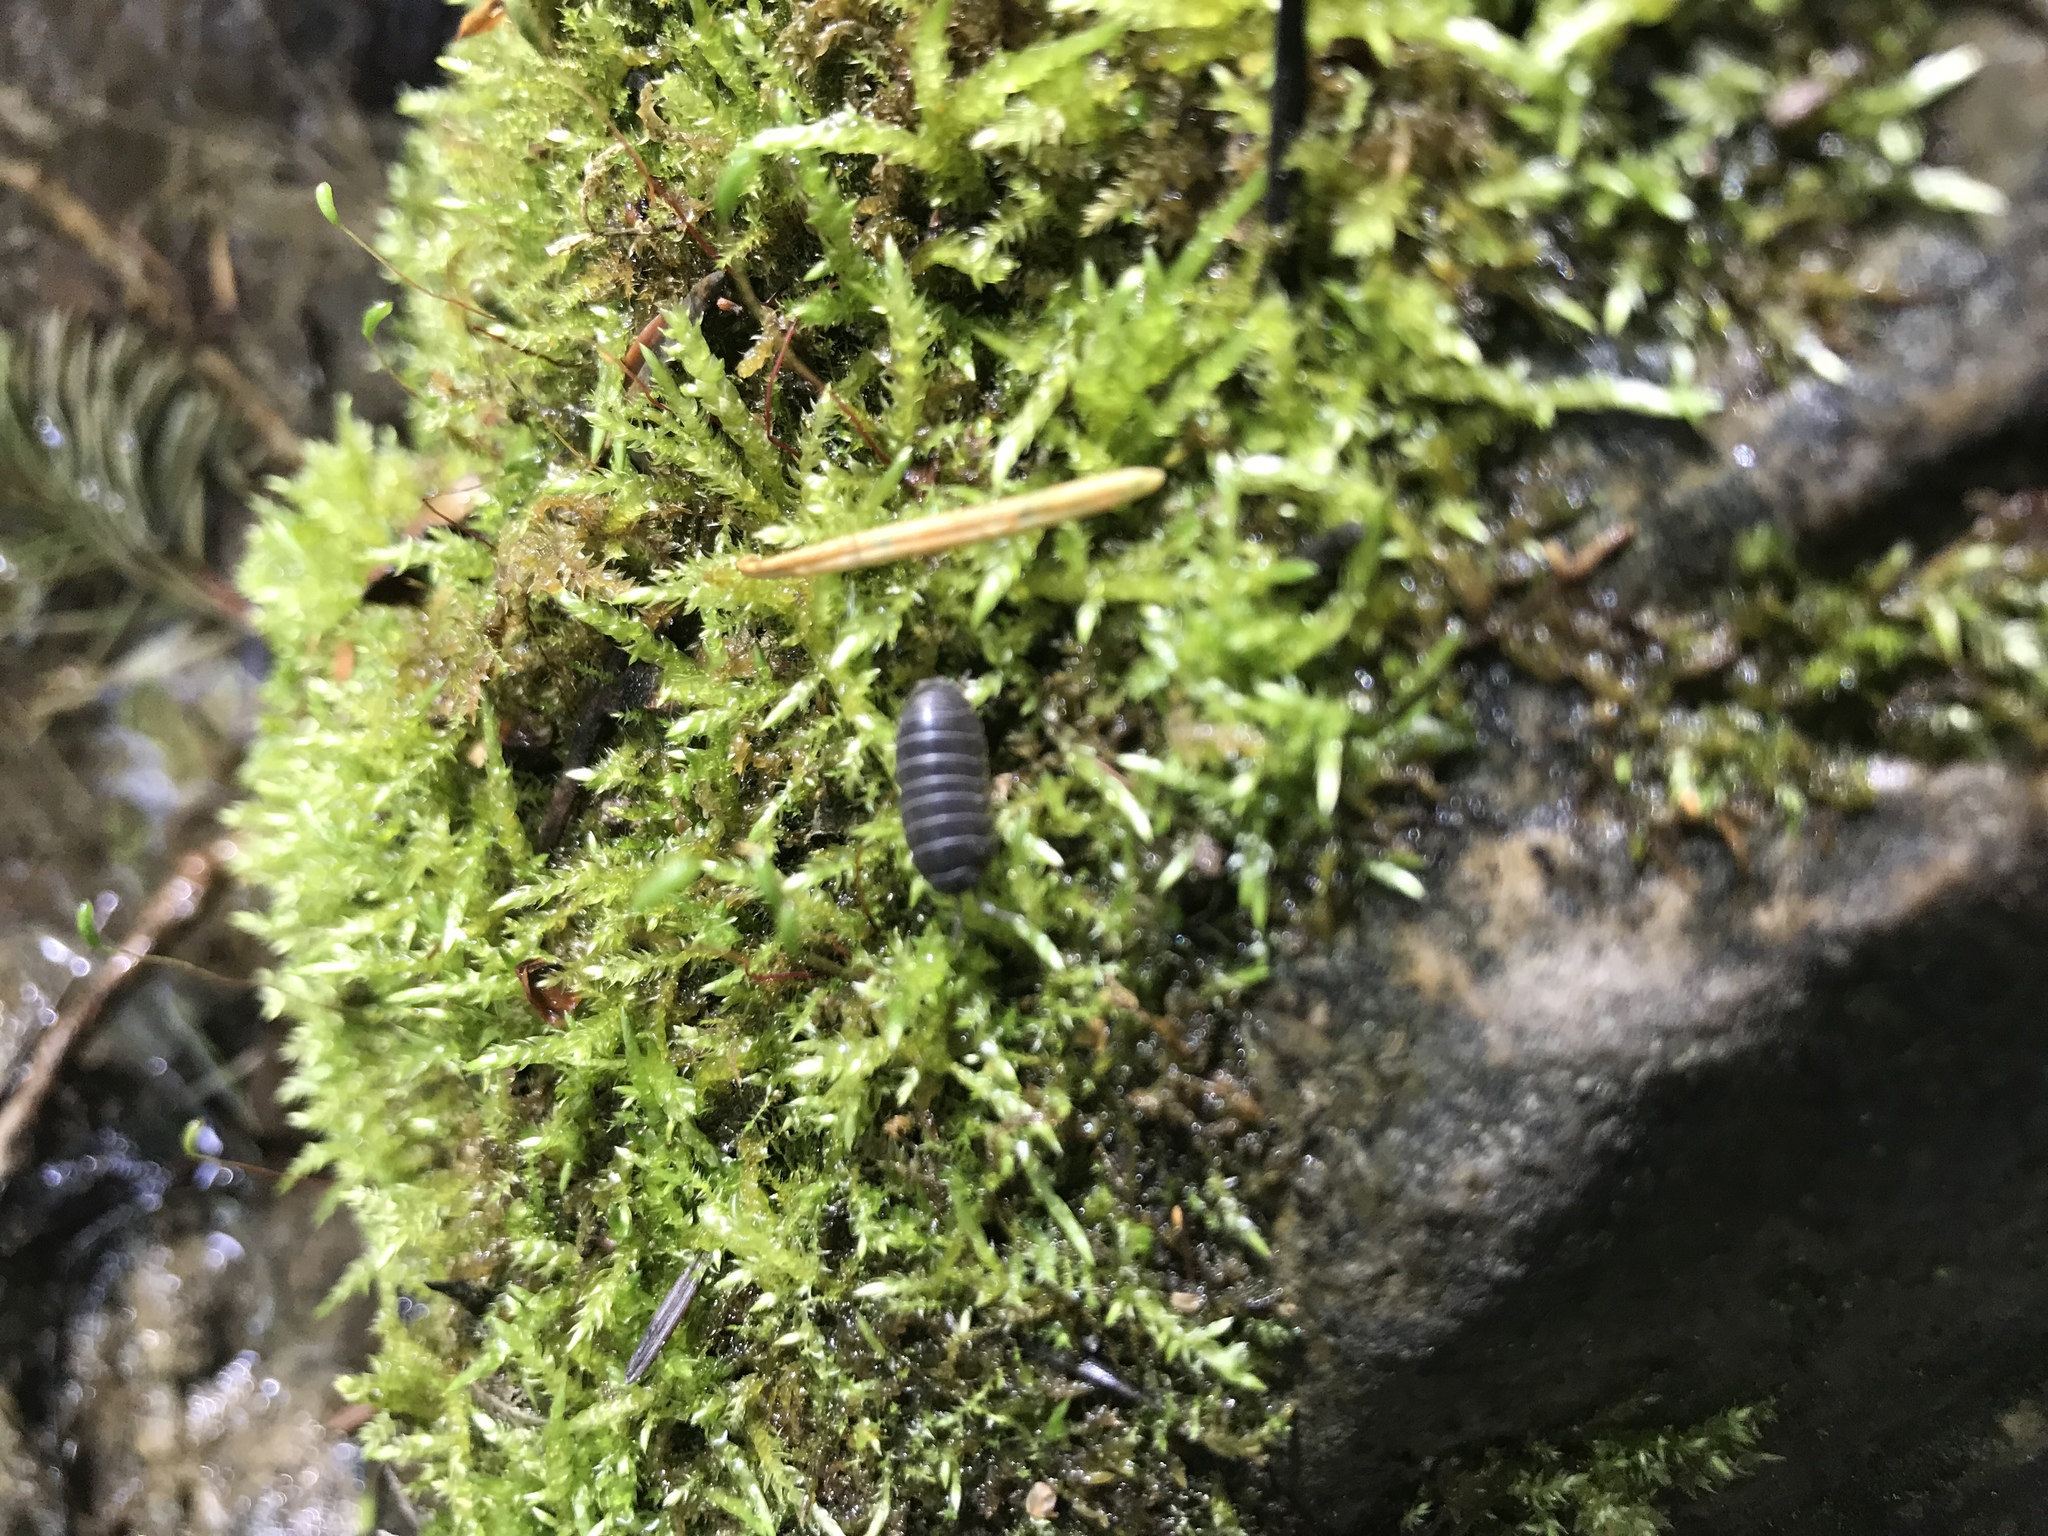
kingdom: Animalia
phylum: Arthropoda
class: Malacostraca
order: Isopoda
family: Armadillidiidae
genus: Armadillidium
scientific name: Armadillidium vulgare
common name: Common pill woodlouse
